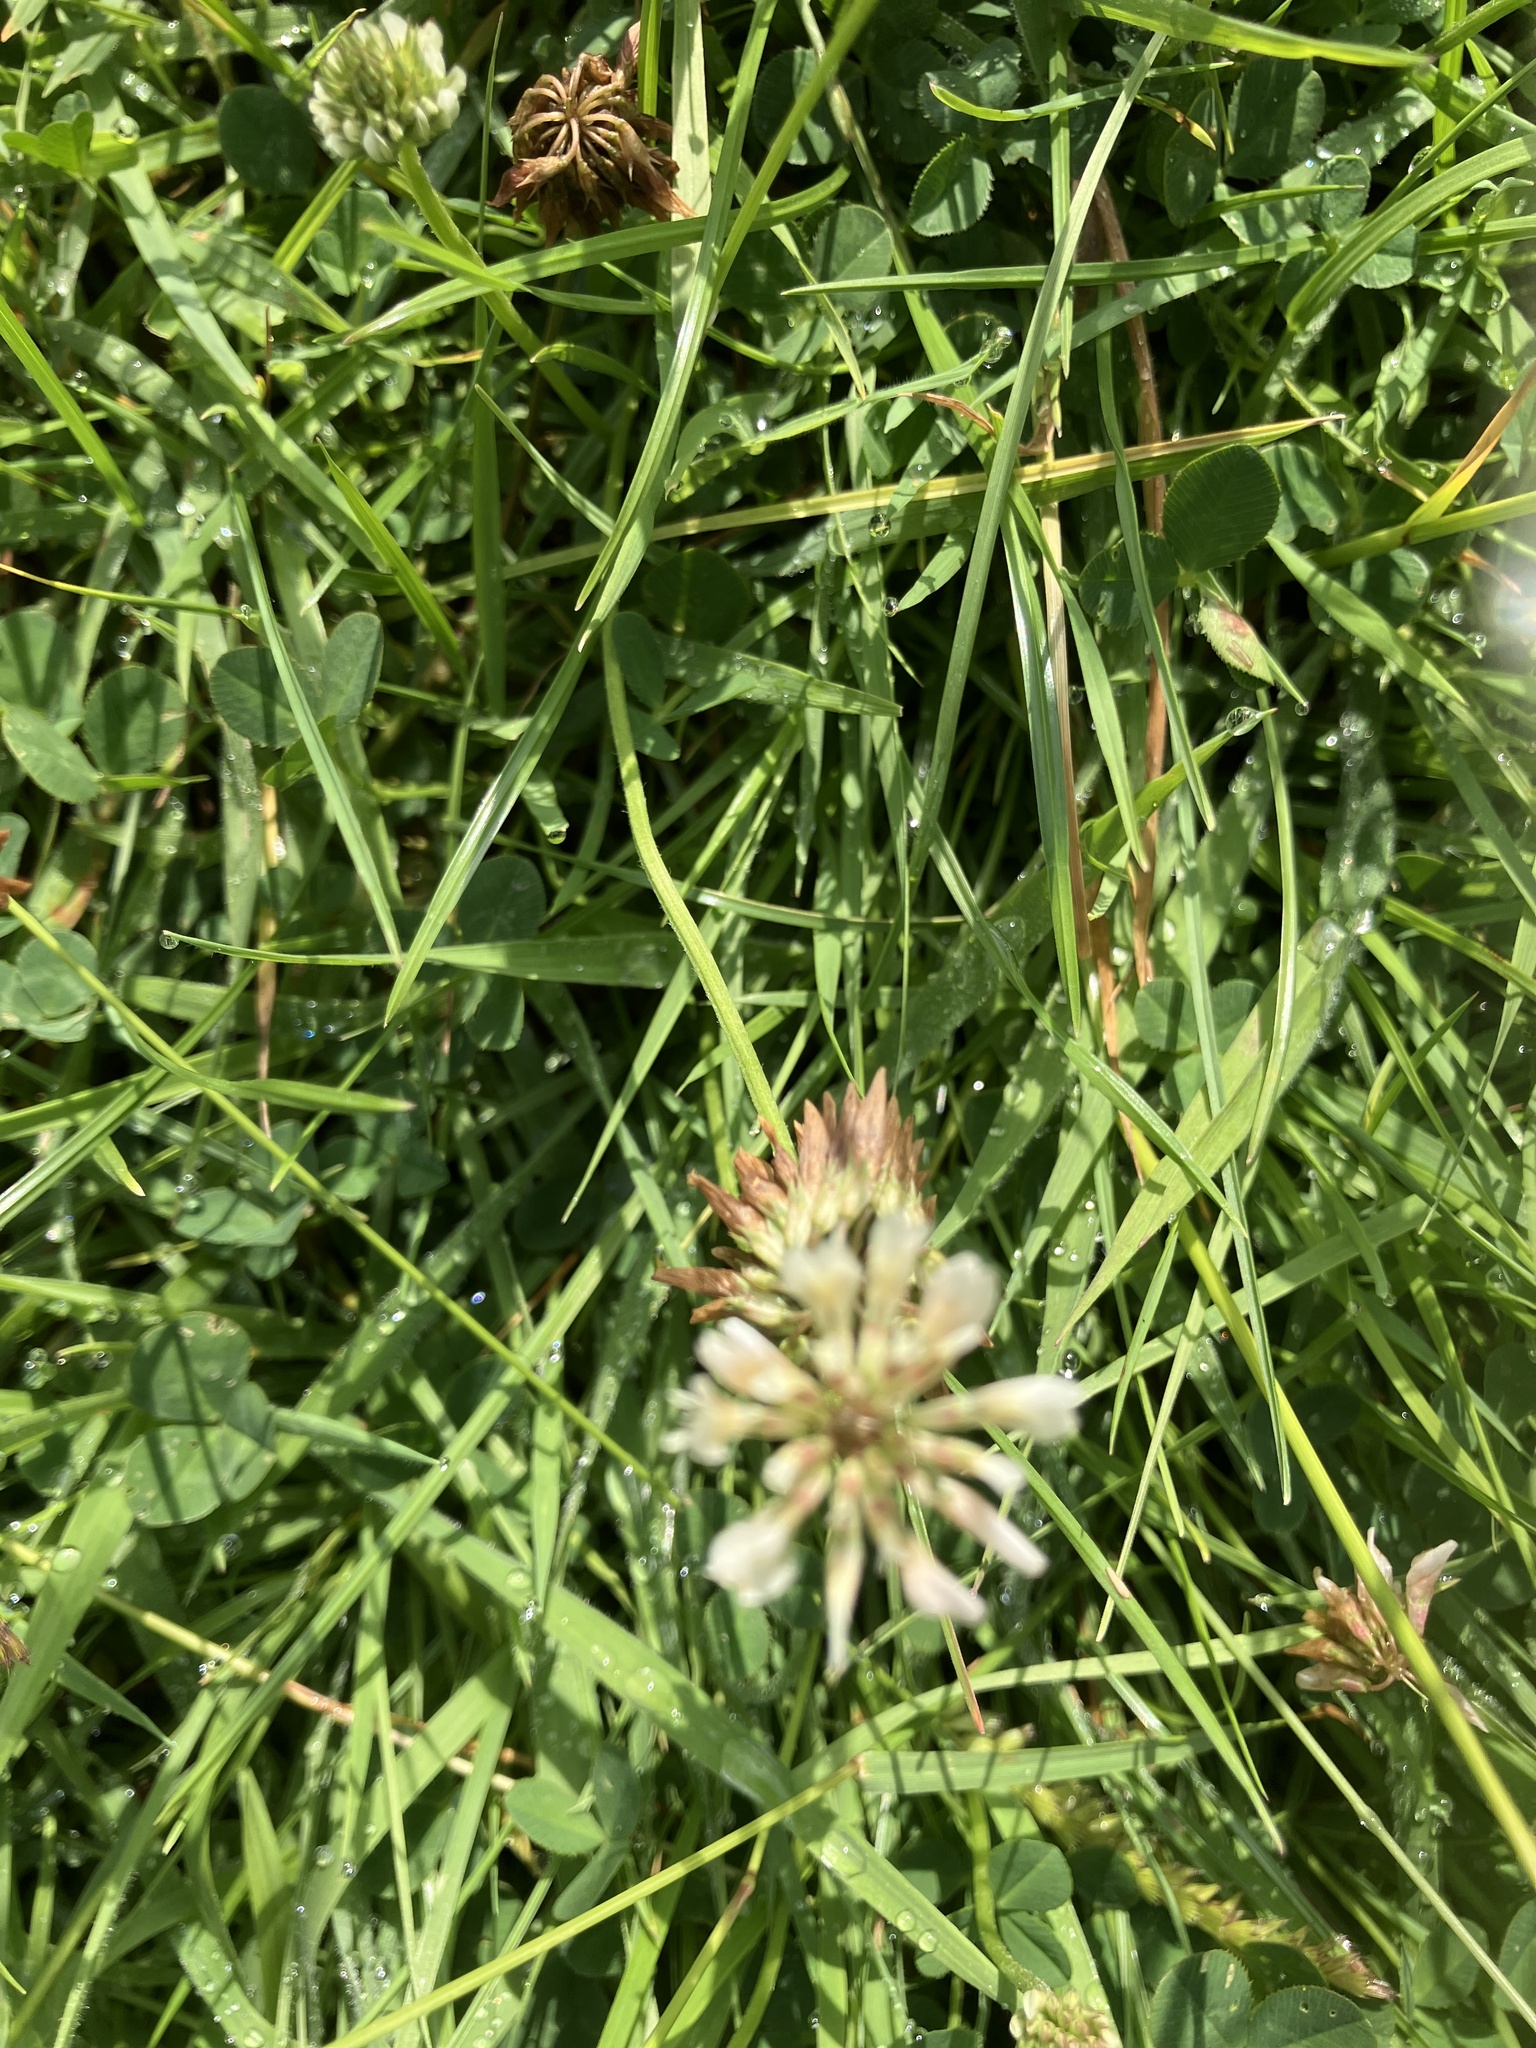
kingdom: Plantae
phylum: Tracheophyta
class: Magnoliopsida
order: Fabales
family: Fabaceae
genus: Trifolium
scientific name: Trifolium repens
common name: White clover
